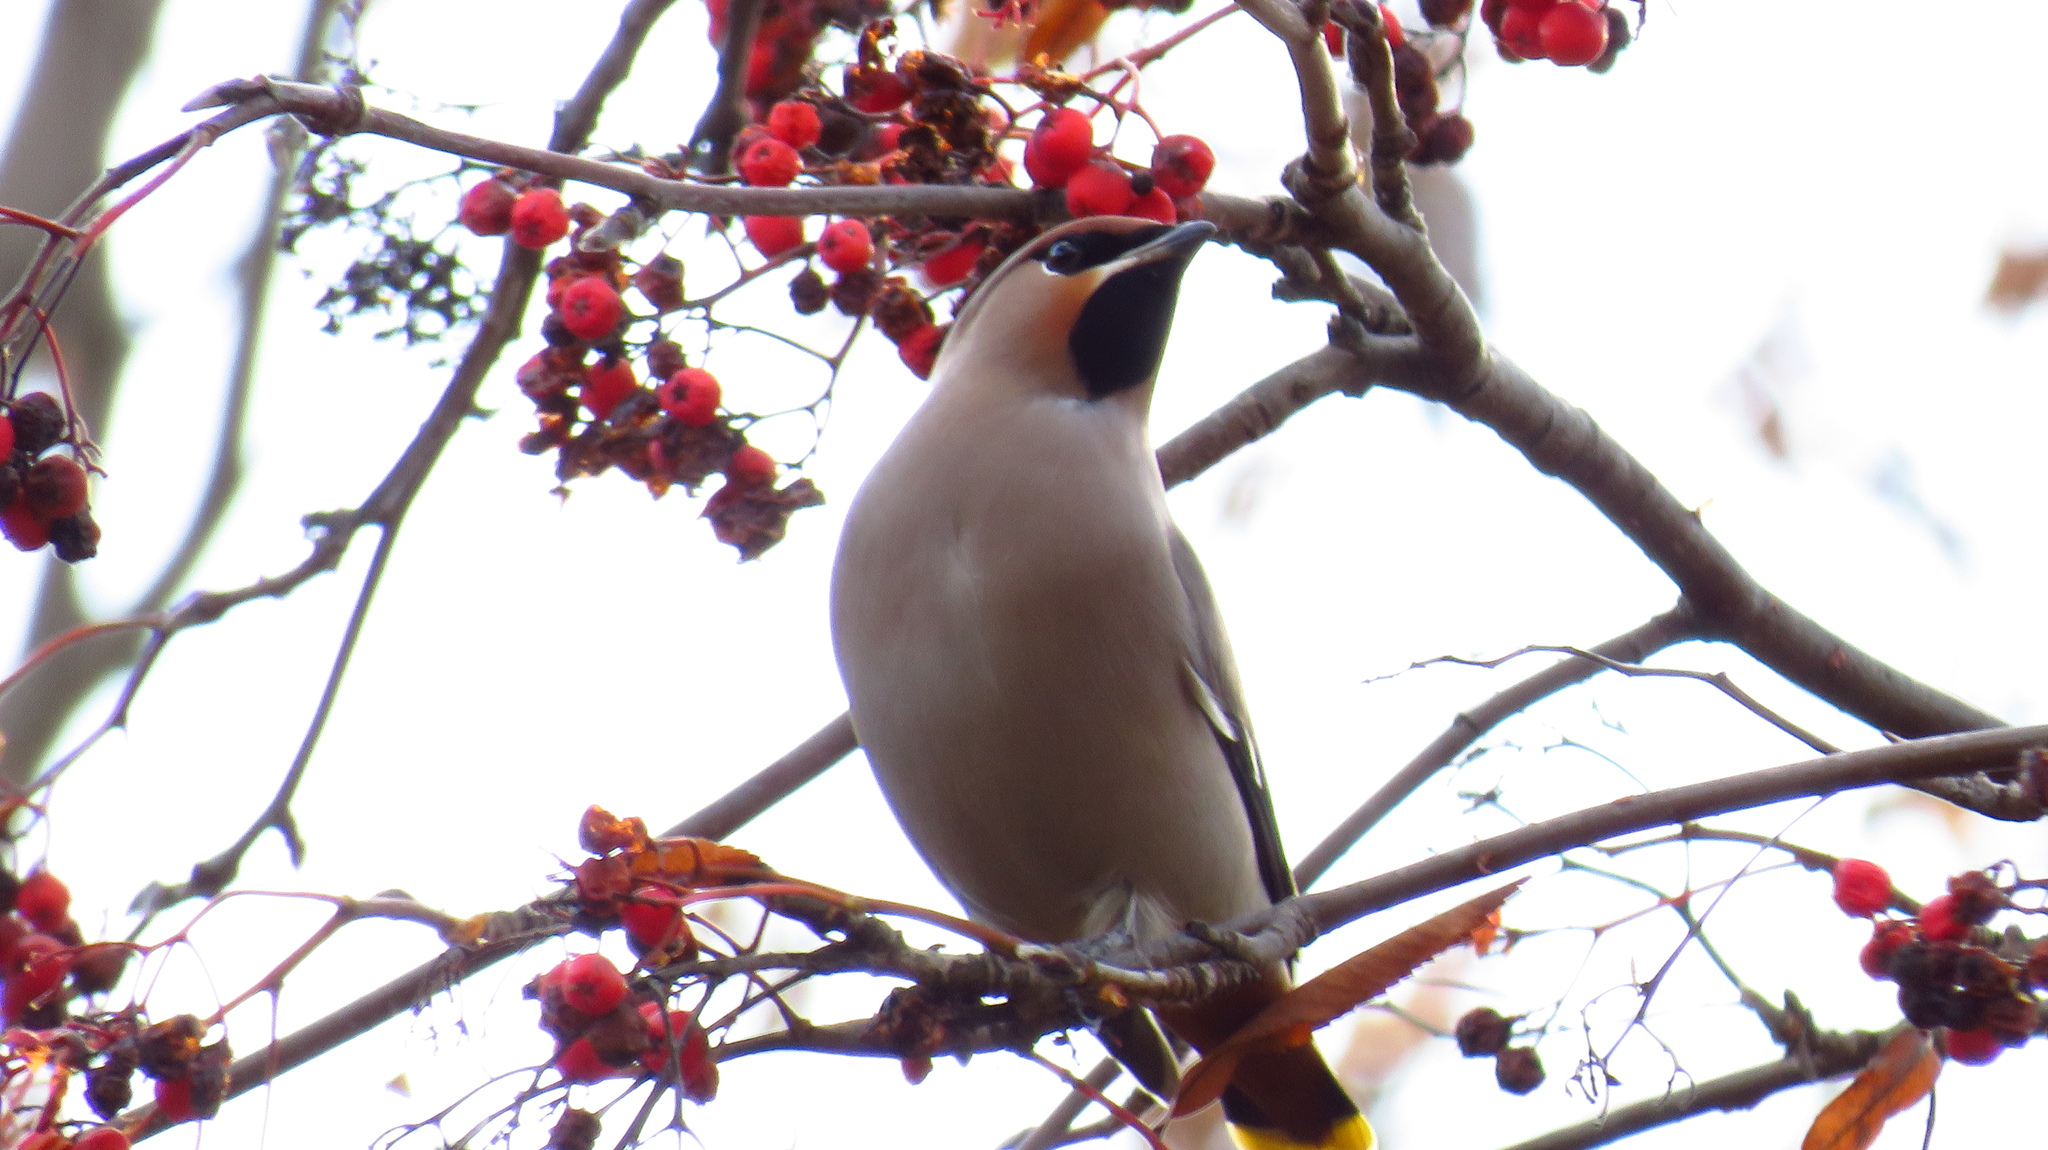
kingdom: Animalia
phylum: Chordata
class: Aves
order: Passeriformes
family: Bombycillidae
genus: Bombycilla
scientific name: Bombycilla garrulus
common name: Bohemian waxwing
